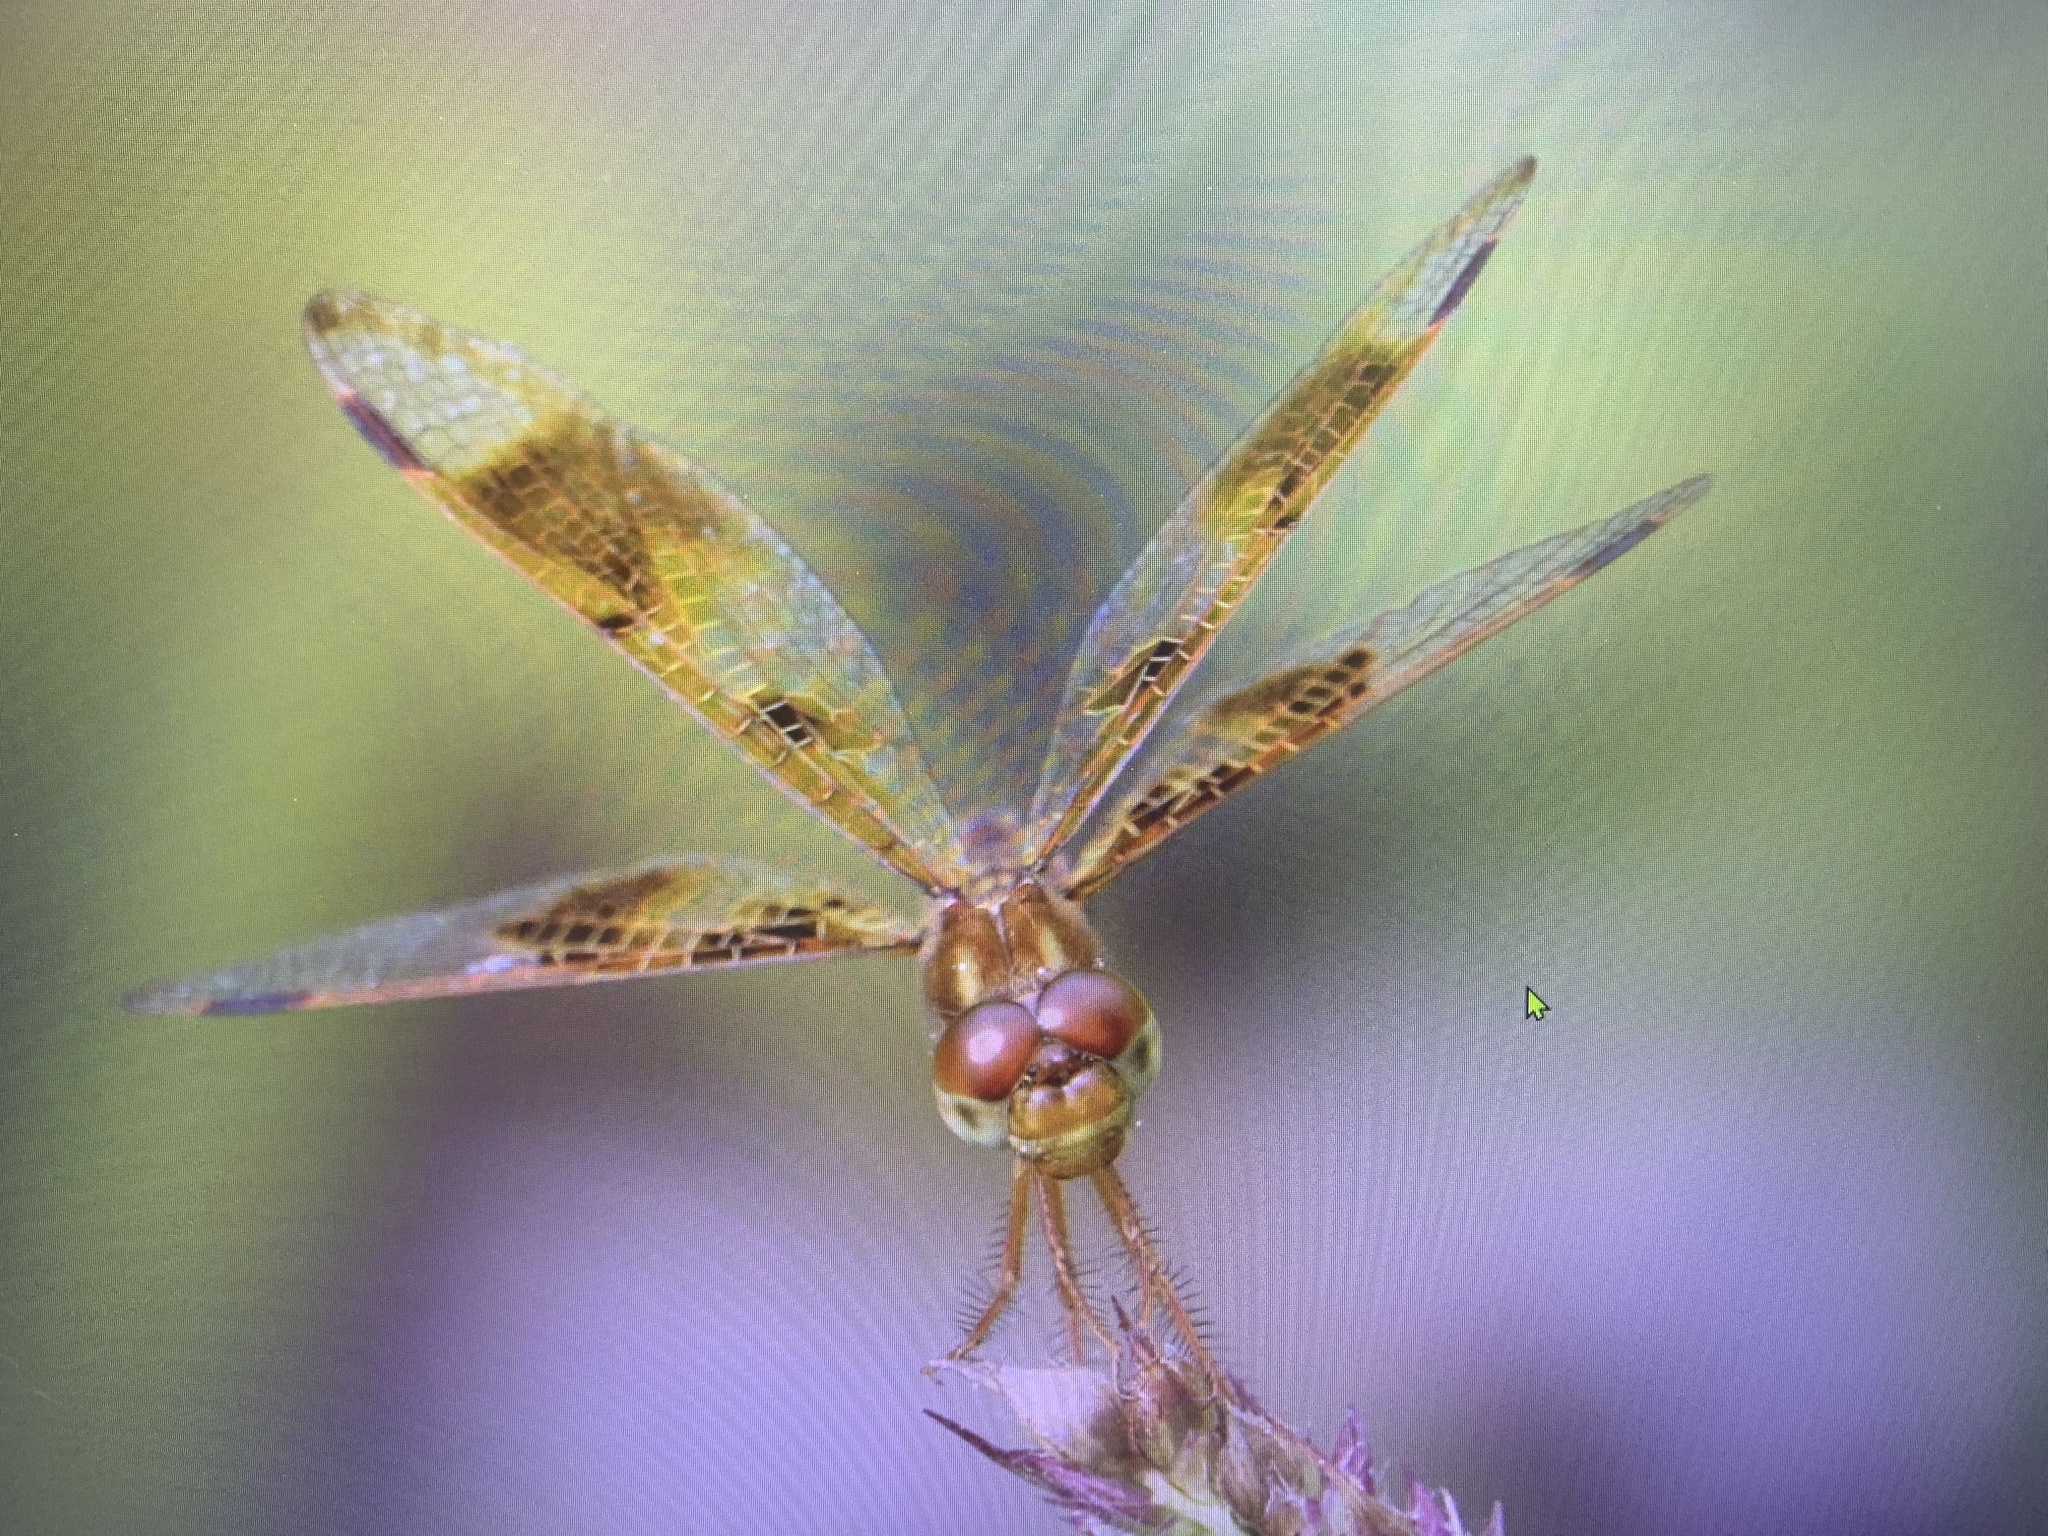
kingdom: Animalia
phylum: Arthropoda
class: Insecta
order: Odonata
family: Libellulidae
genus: Perithemis
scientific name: Perithemis tenera
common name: Eastern amberwing
